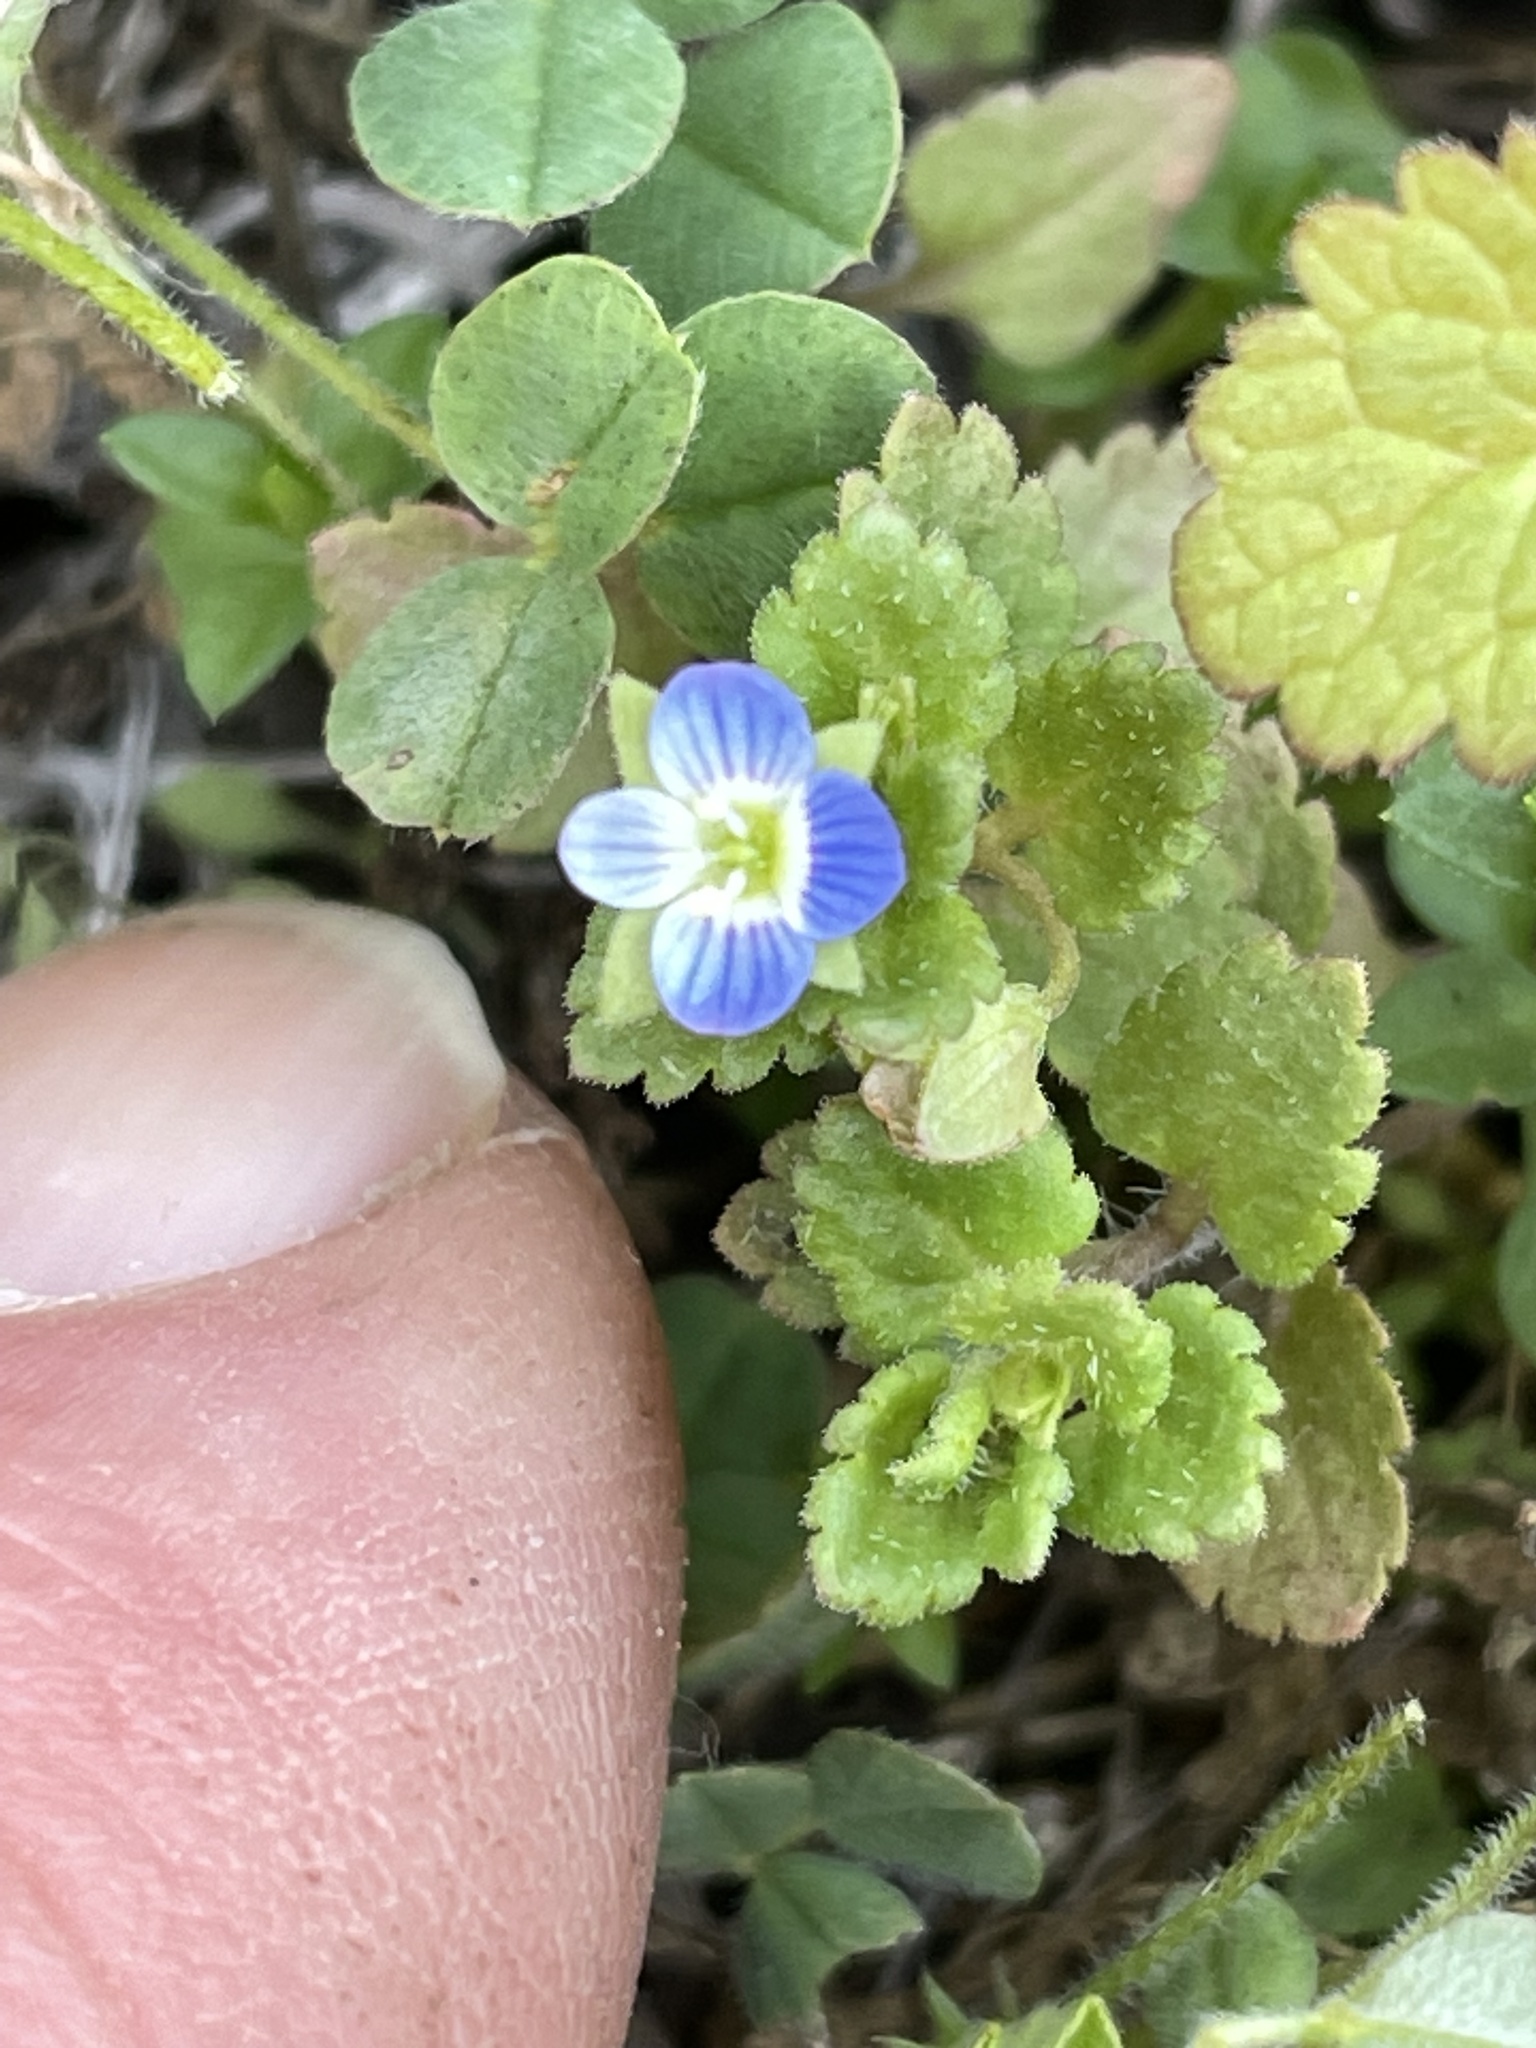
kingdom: Plantae
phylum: Tracheophyta
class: Magnoliopsida
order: Lamiales
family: Plantaginaceae
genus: Veronica
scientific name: Veronica polita
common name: Grey field-speedwell
